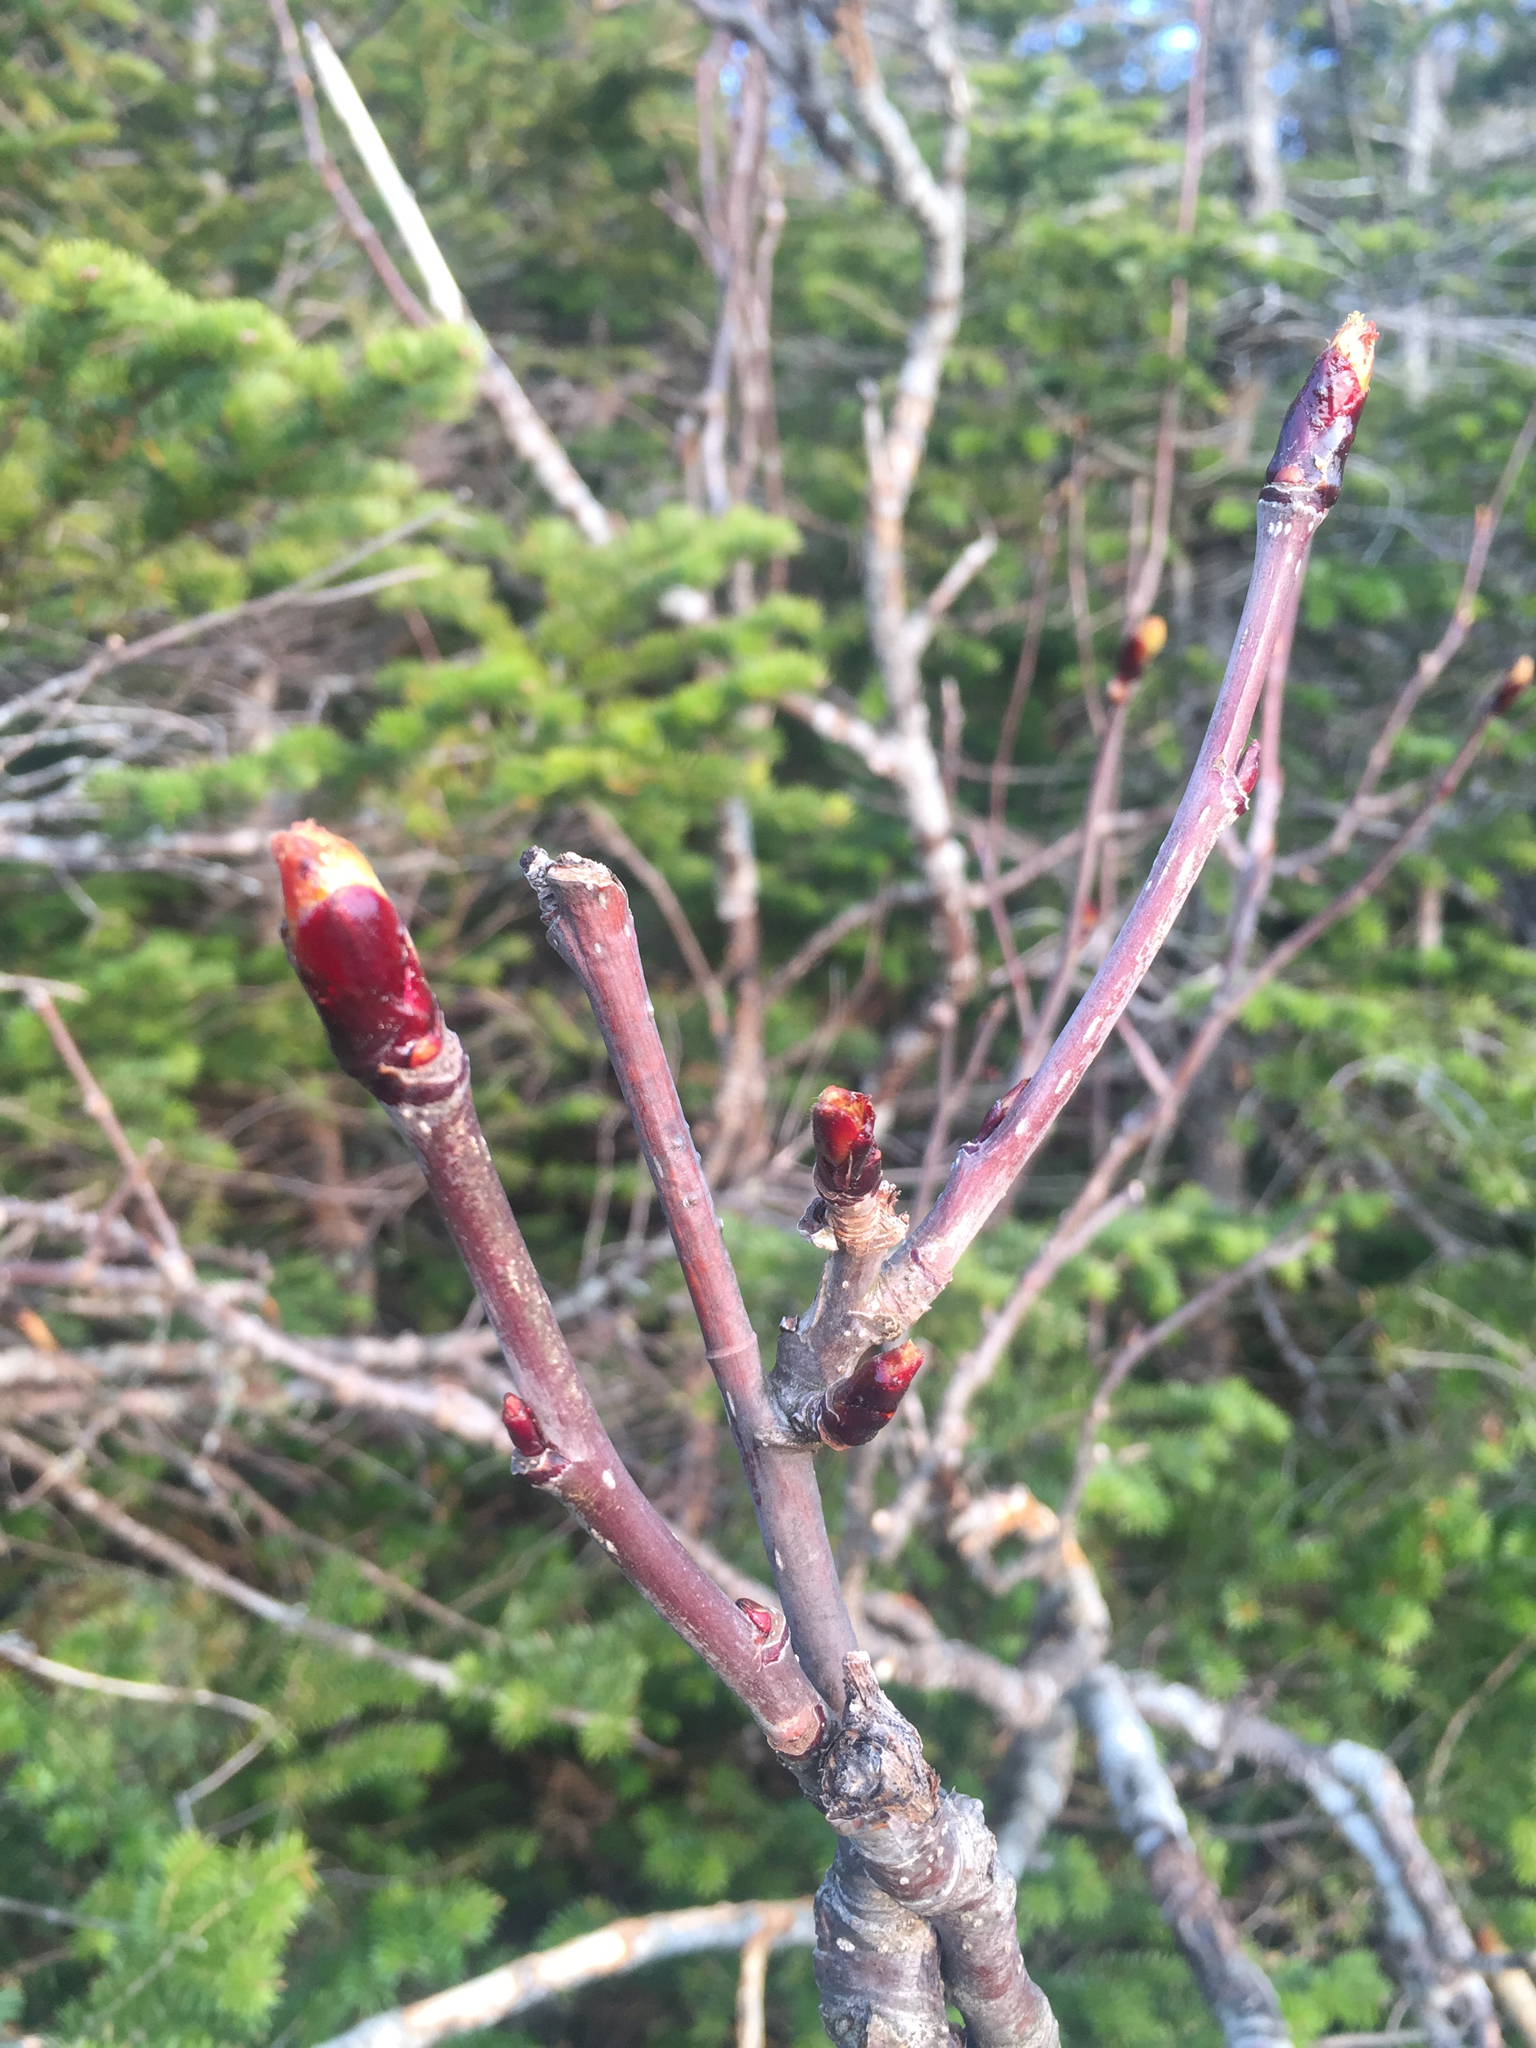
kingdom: Plantae
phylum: Tracheophyta
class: Magnoliopsida
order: Rosales
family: Rosaceae
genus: Sorbus
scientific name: Sorbus americana
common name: American mountain-ash
